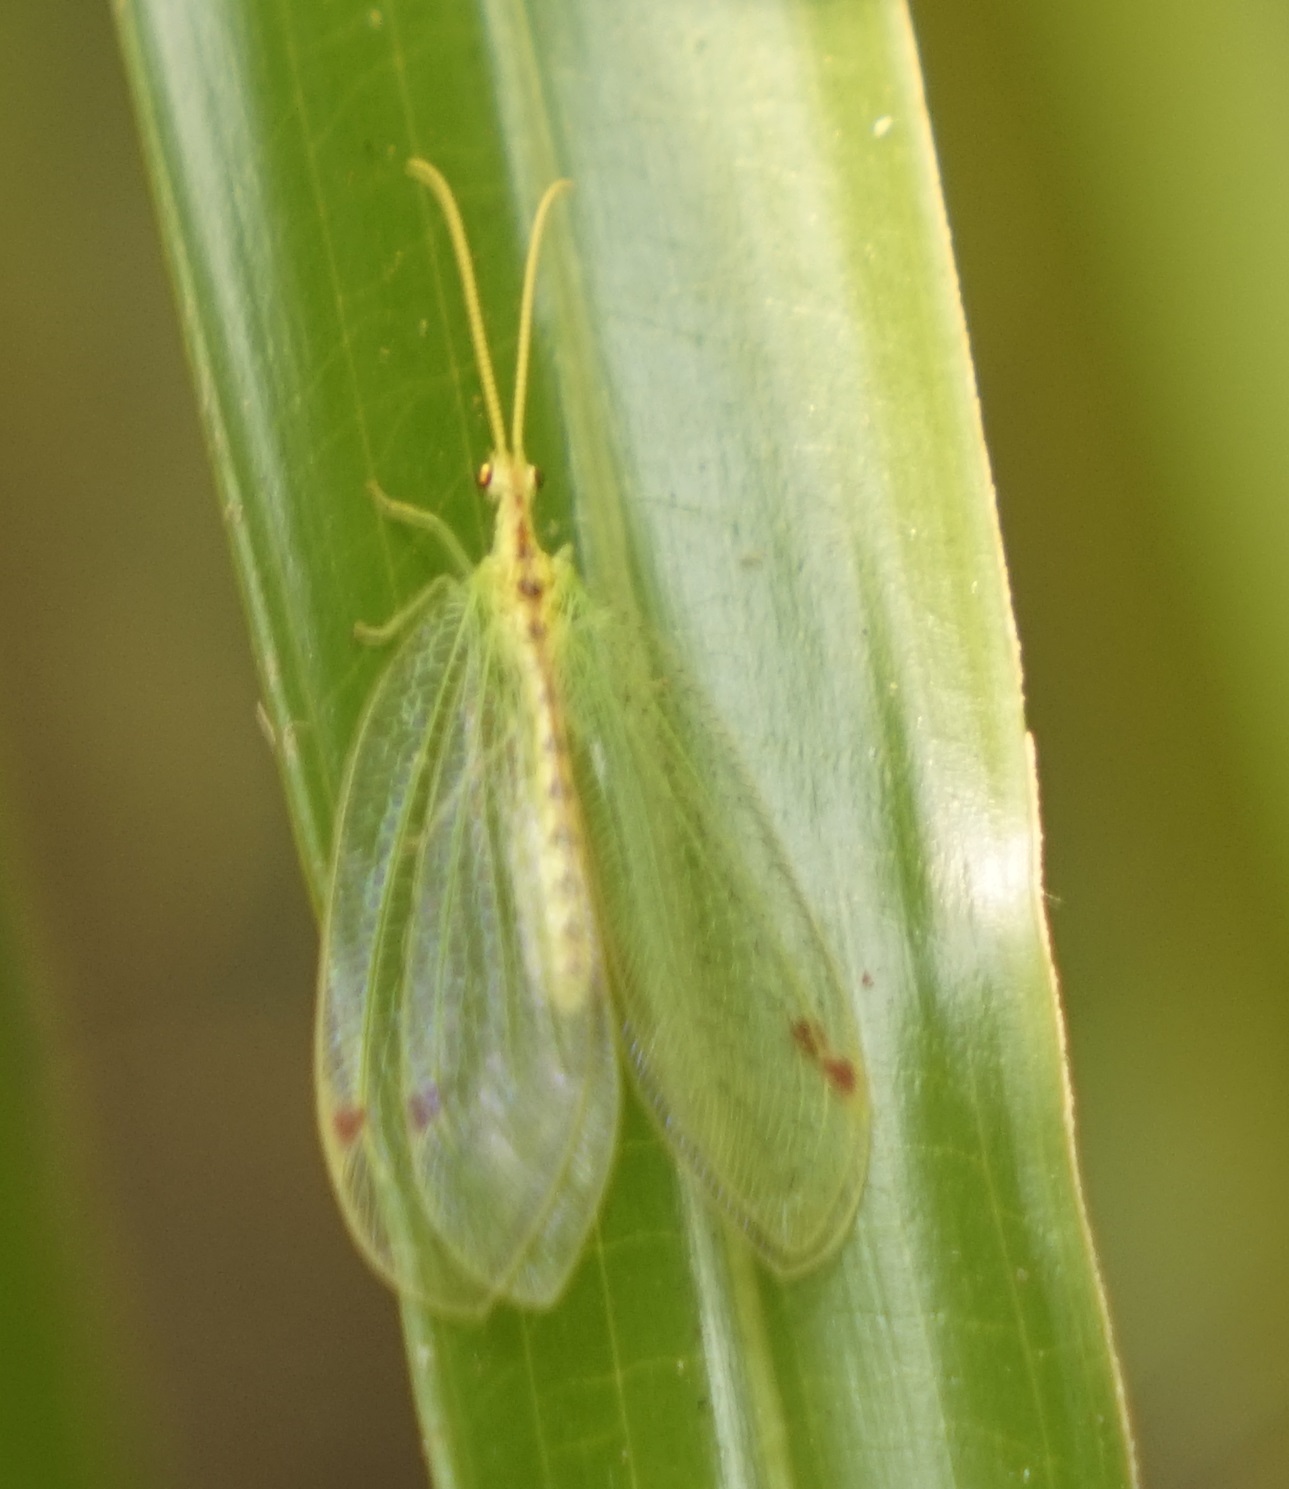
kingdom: Animalia
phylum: Arthropoda
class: Insecta
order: Neuroptera
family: Nymphidae
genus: Norfolius
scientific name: Norfolius howensis
